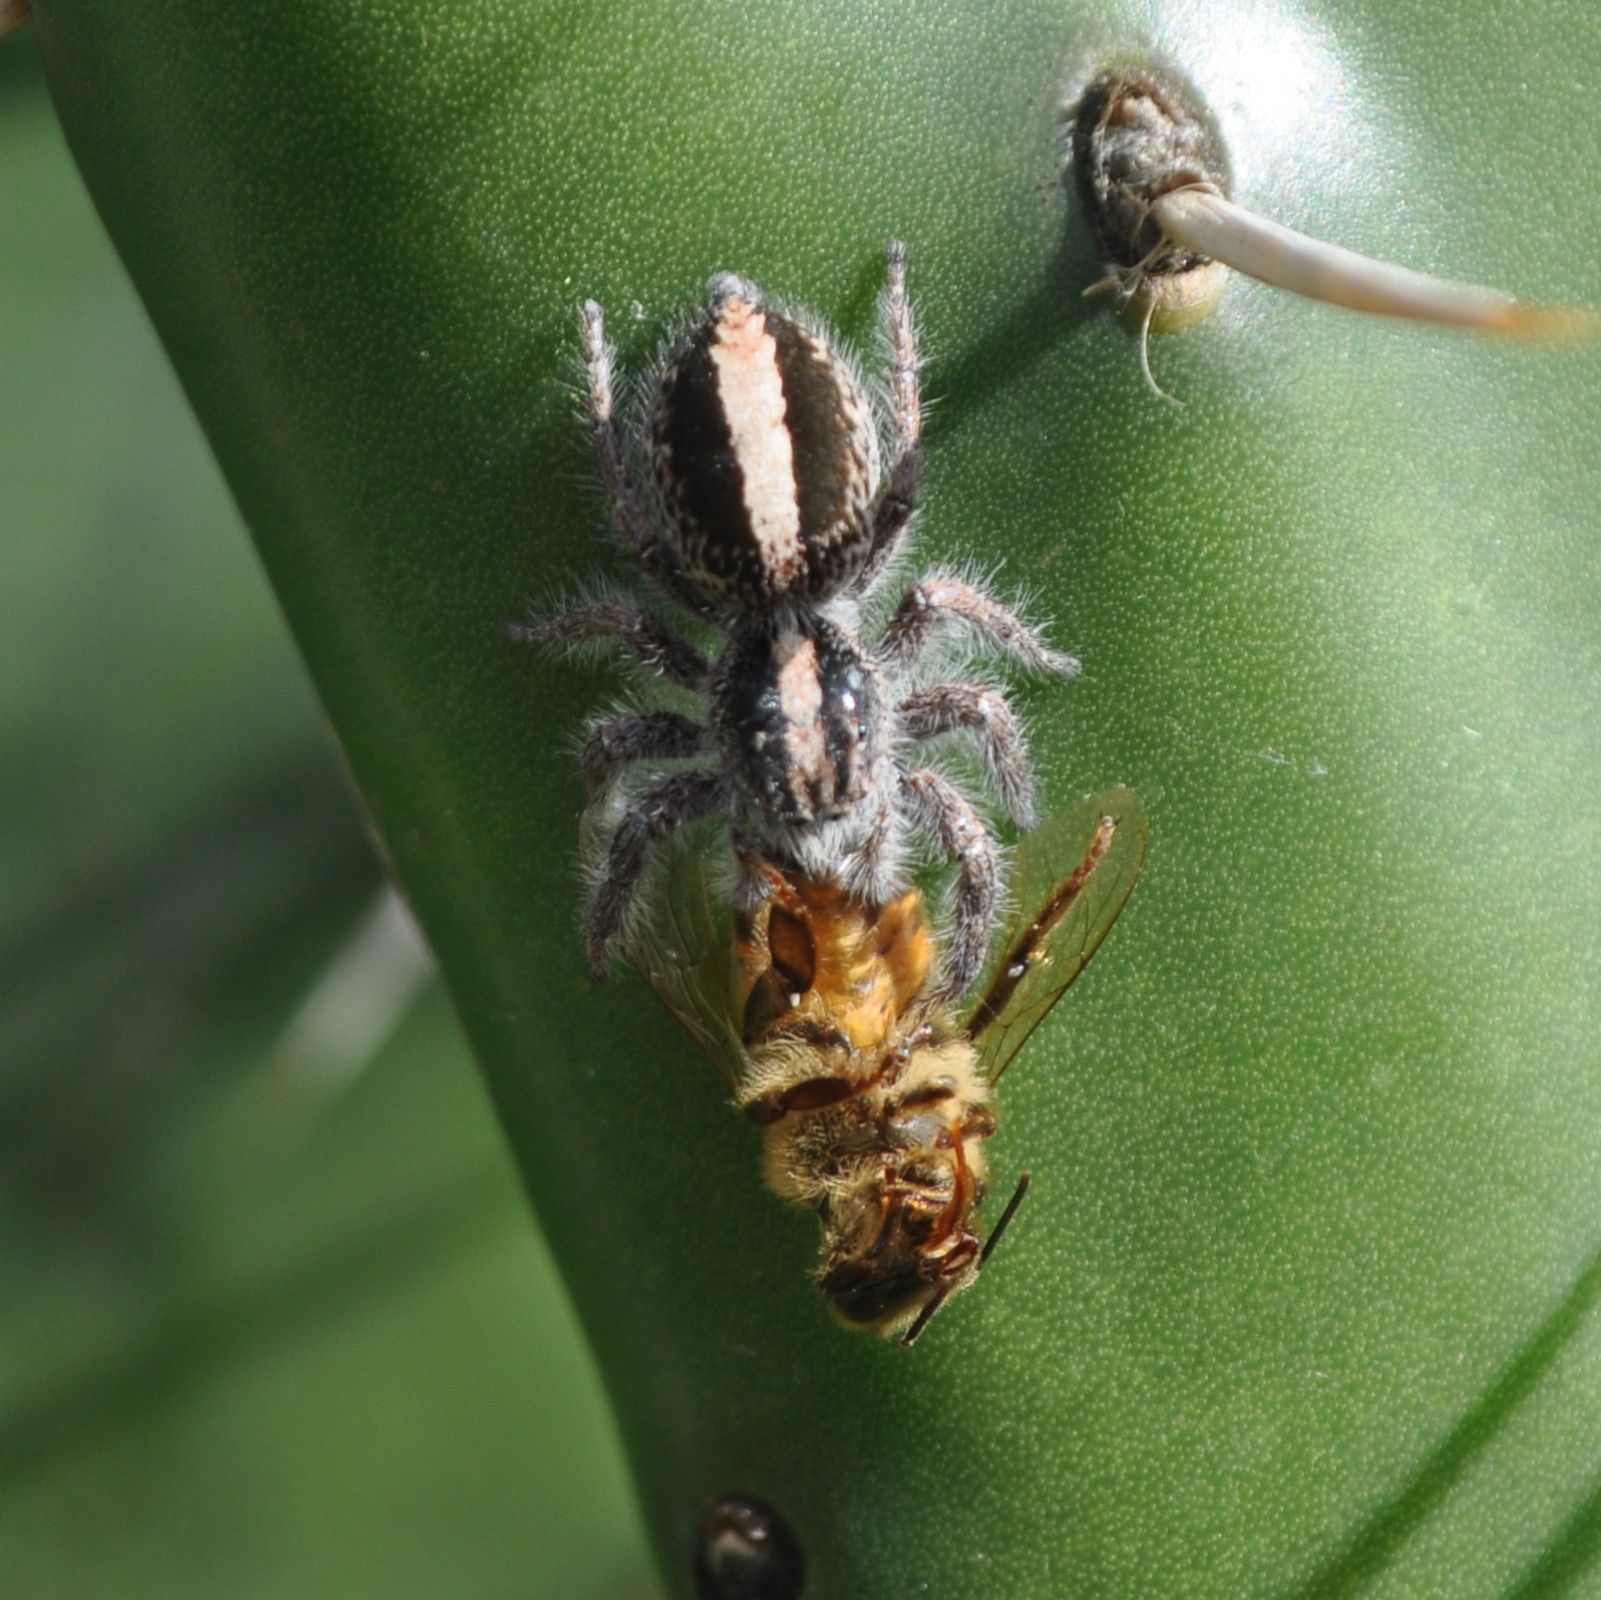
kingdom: Animalia
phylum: Arthropoda
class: Arachnida
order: Araneae
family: Salticidae
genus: Megafreya
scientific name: Megafreya sutrix
